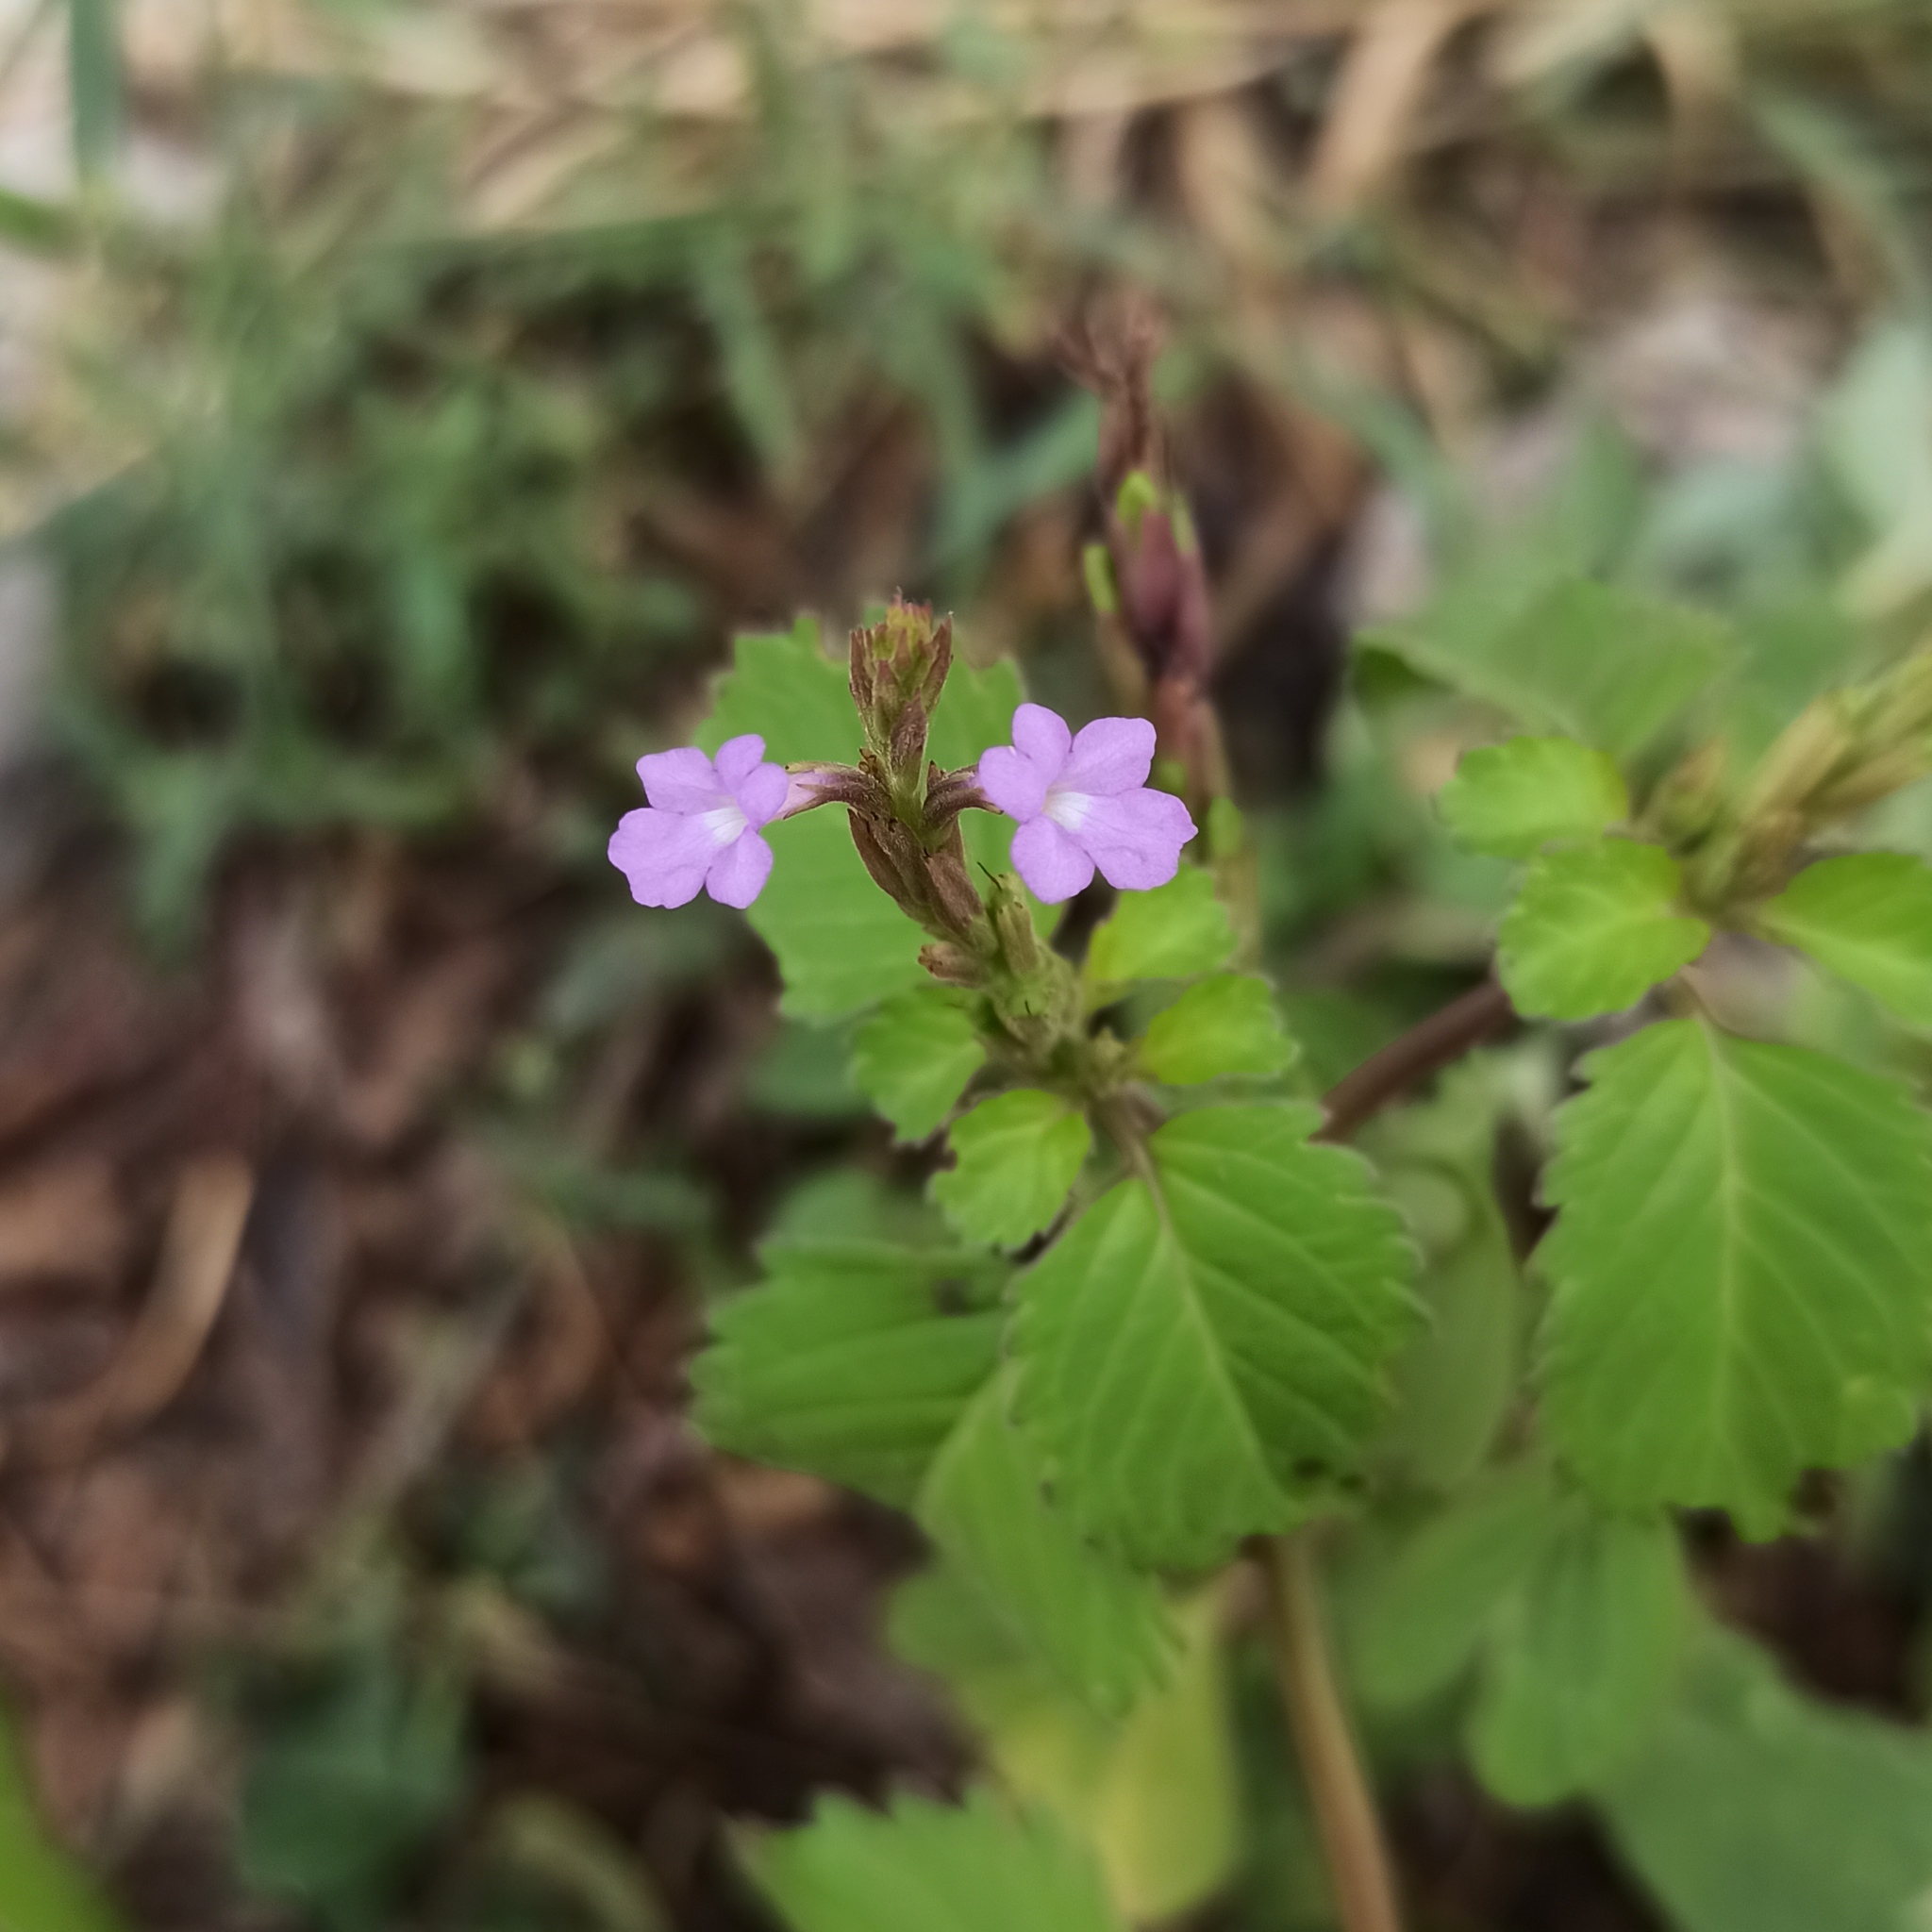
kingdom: Plantae
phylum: Tracheophyta
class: Magnoliopsida
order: Lamiales
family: Verbenaceae
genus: Bouchea
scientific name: Bouchea prismatica
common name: Vervine
